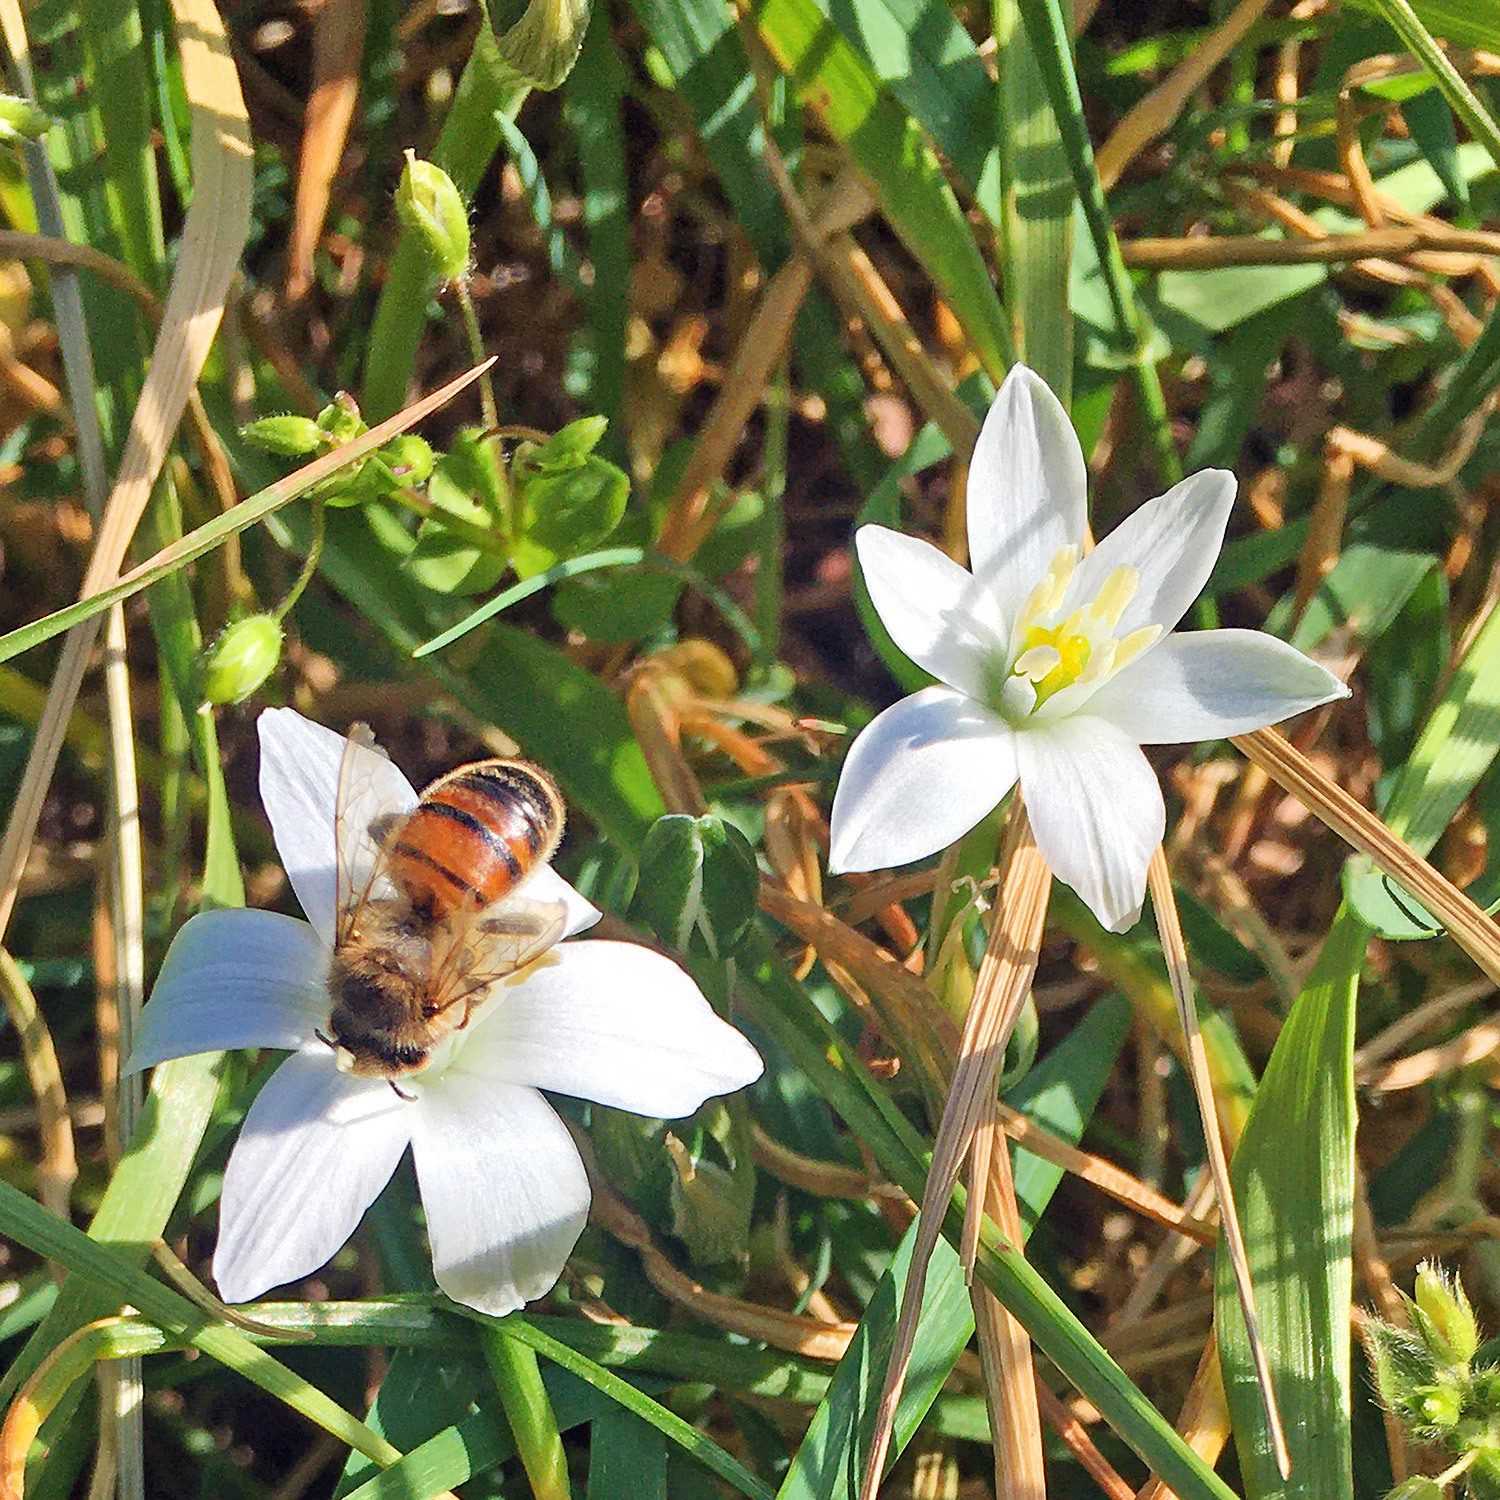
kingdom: Animalia
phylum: Arthropoda
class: Insecta
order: Hymenoptera
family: Apidae
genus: Apis
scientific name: Apis mellifera
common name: Honey bee
